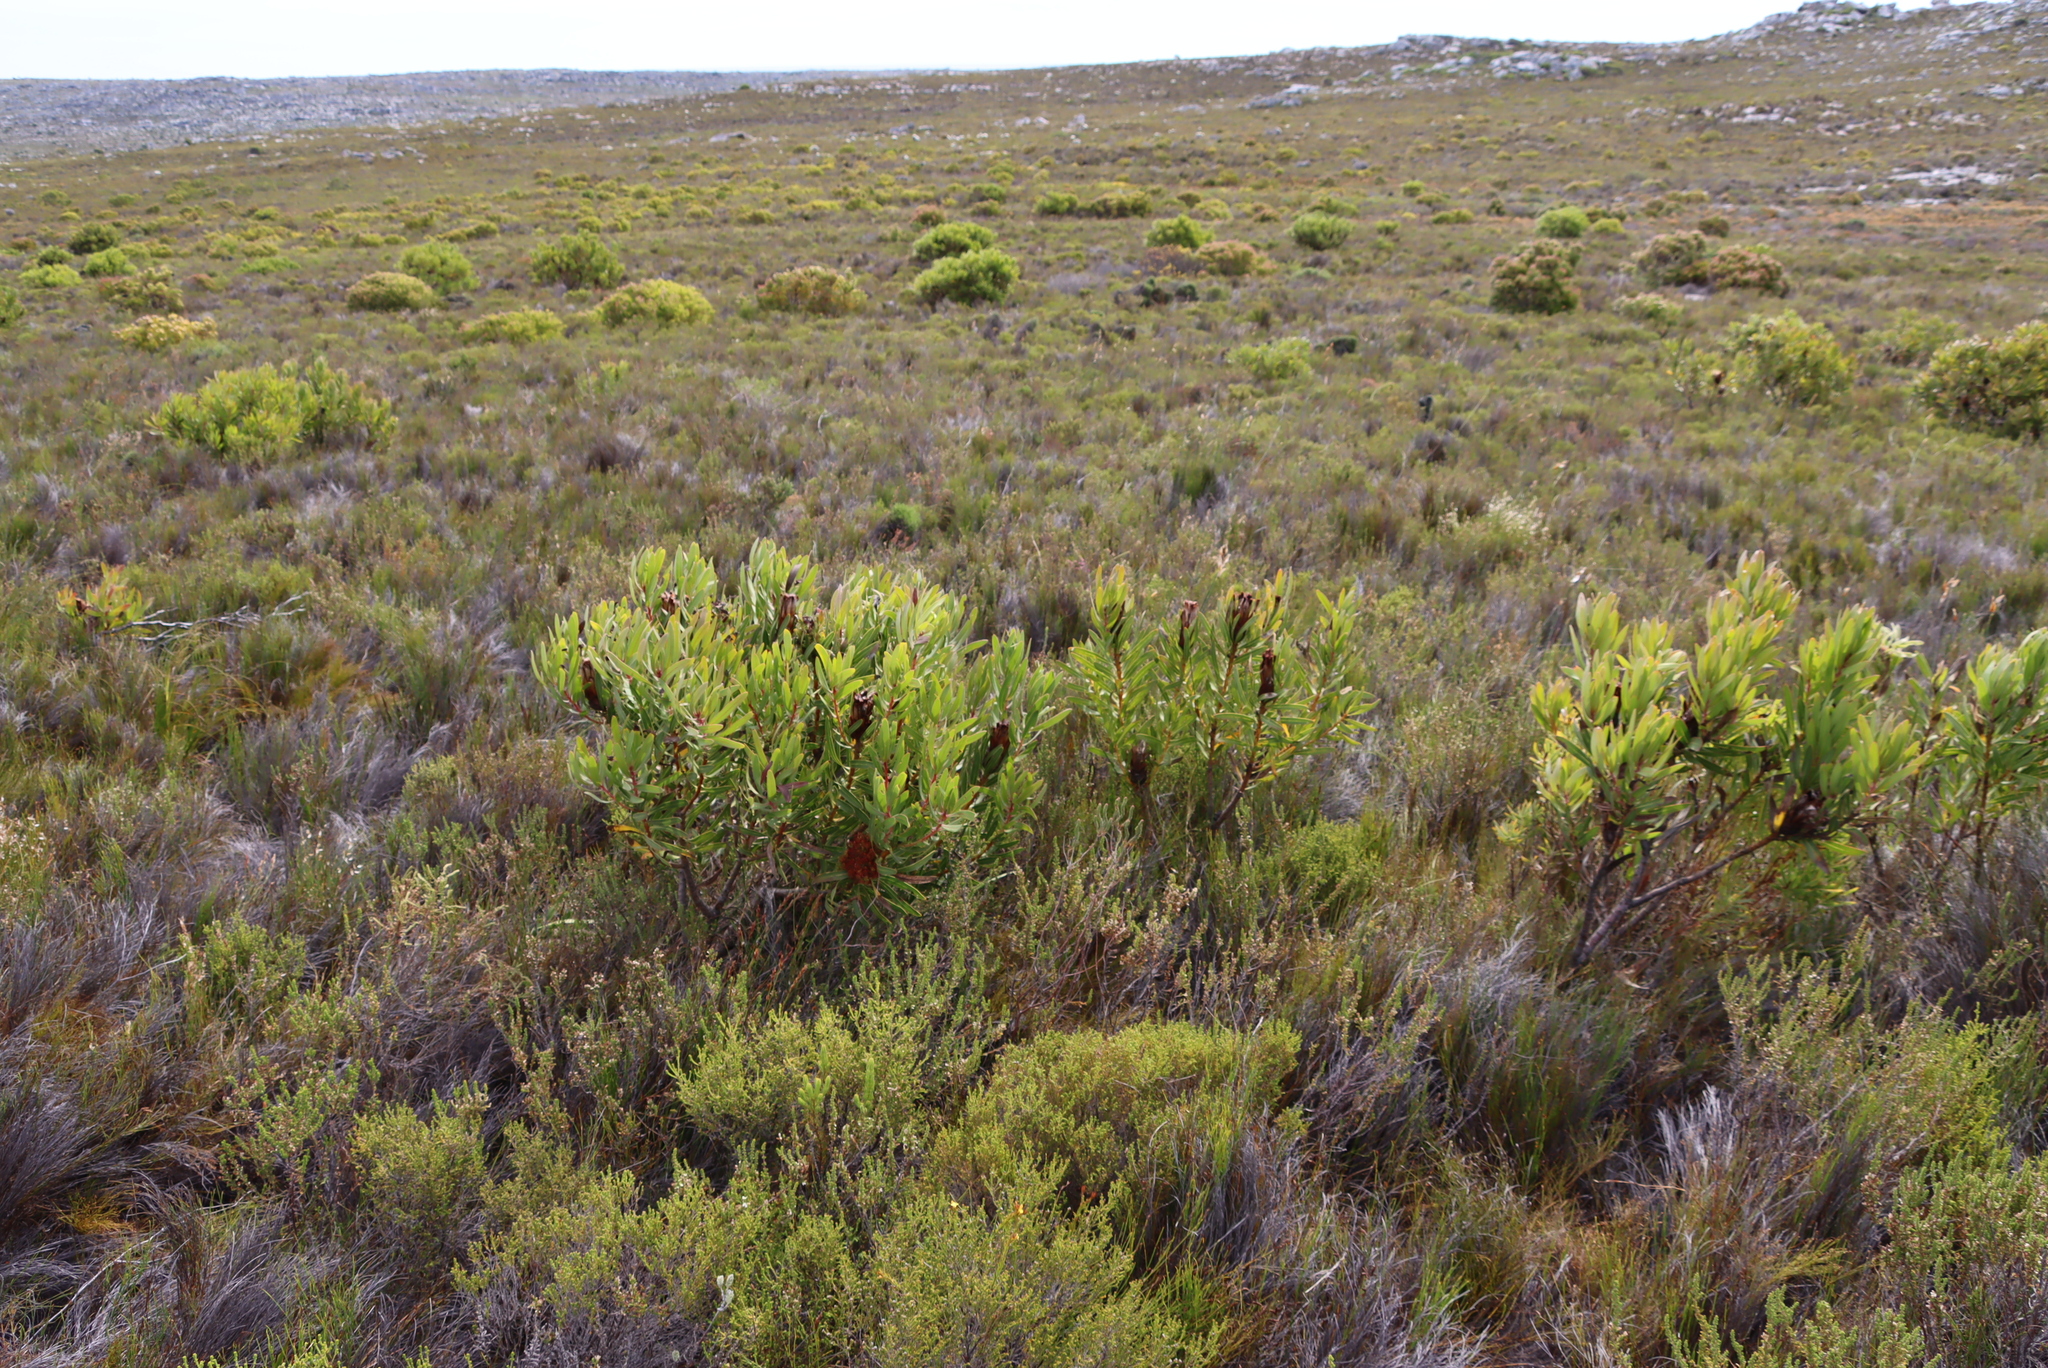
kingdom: Plantae
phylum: Tracheophyta
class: Magnoliopsida
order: Proteales
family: Proteaceae
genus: Protea
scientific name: Protea lepidocarpodendron
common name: Black-bearded protea
